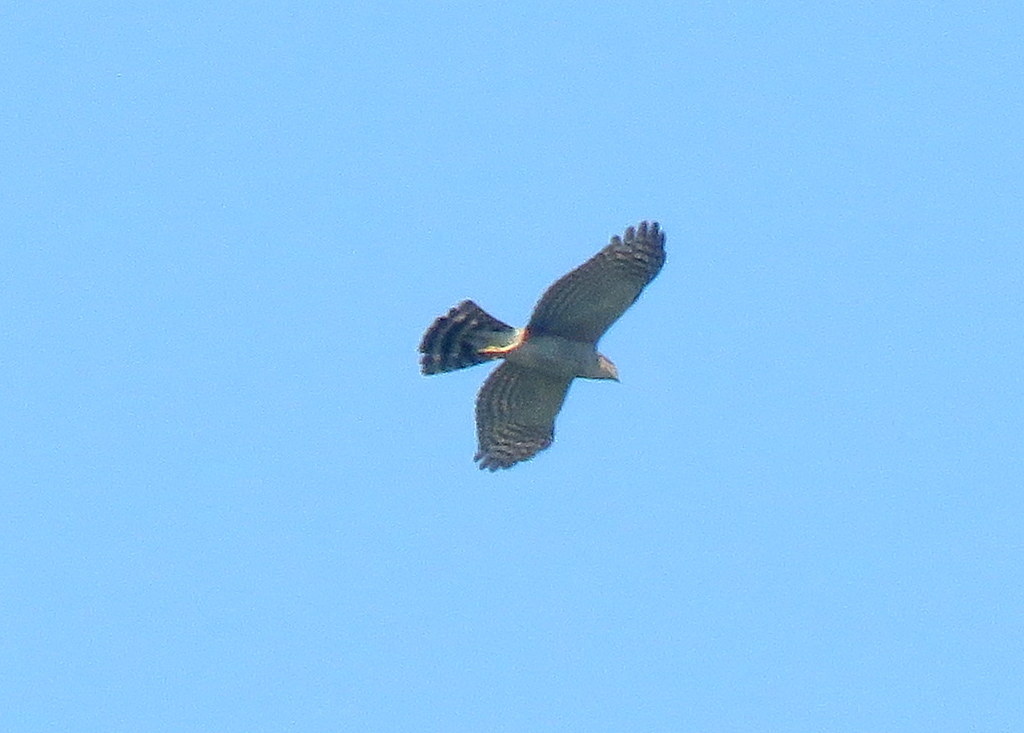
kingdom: Animalia
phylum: Chordata
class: Aves
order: Accipitriformes
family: Accipitridae
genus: Accipiter
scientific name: Accipiter striatus
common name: Sharp-shinned hawk
